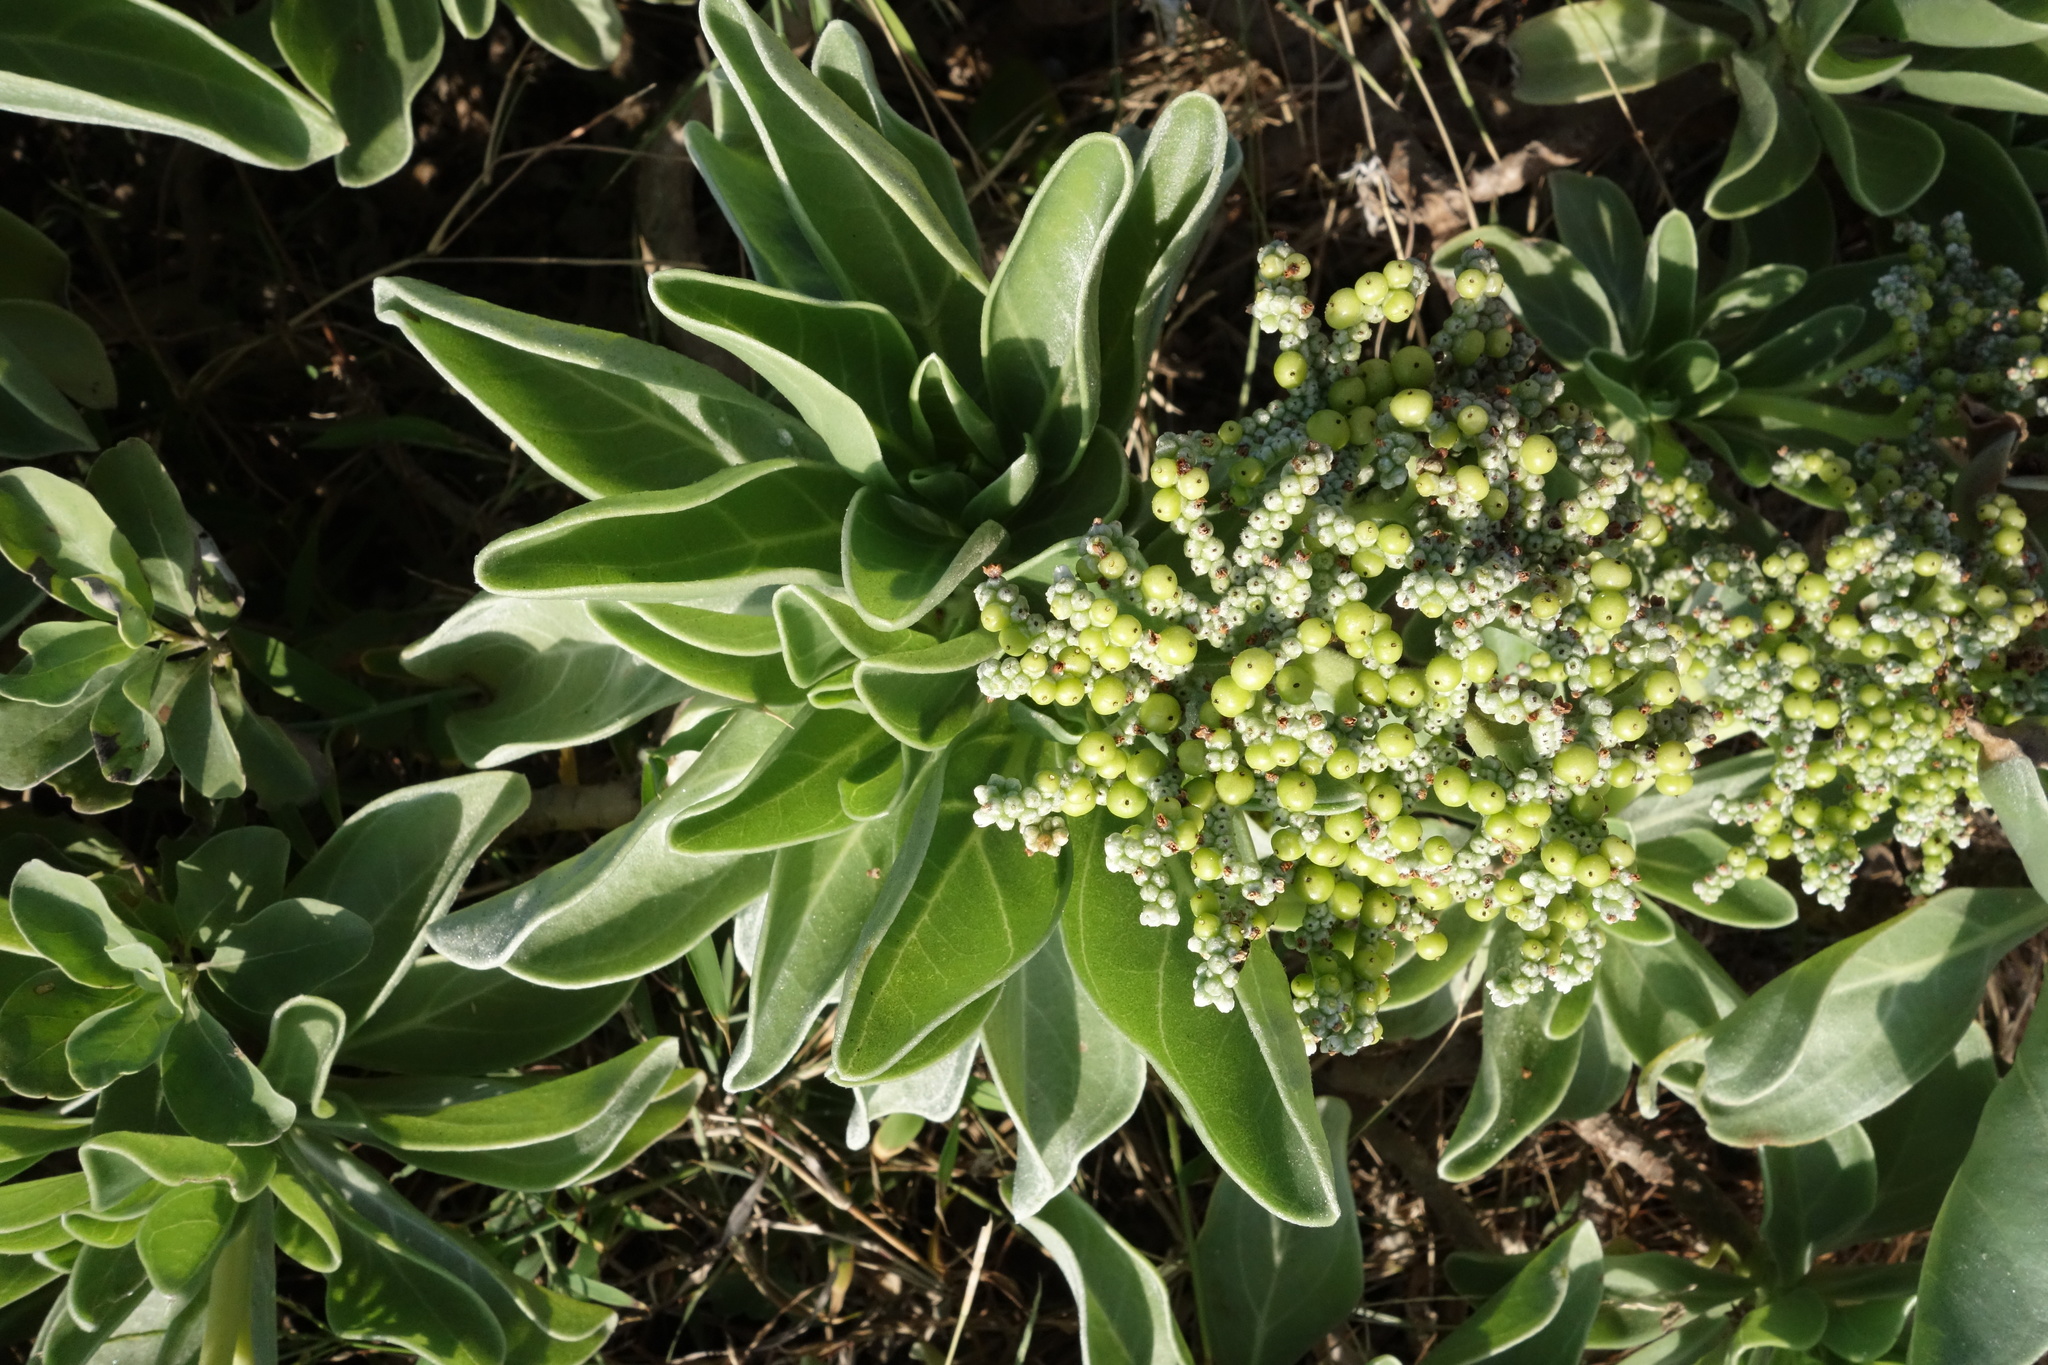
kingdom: Plantae
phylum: Tracheophyta
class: Magnoliopsida
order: Boraginales
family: Heliotropiaceae
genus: Heliotropium
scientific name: Heliotropium velutinum
